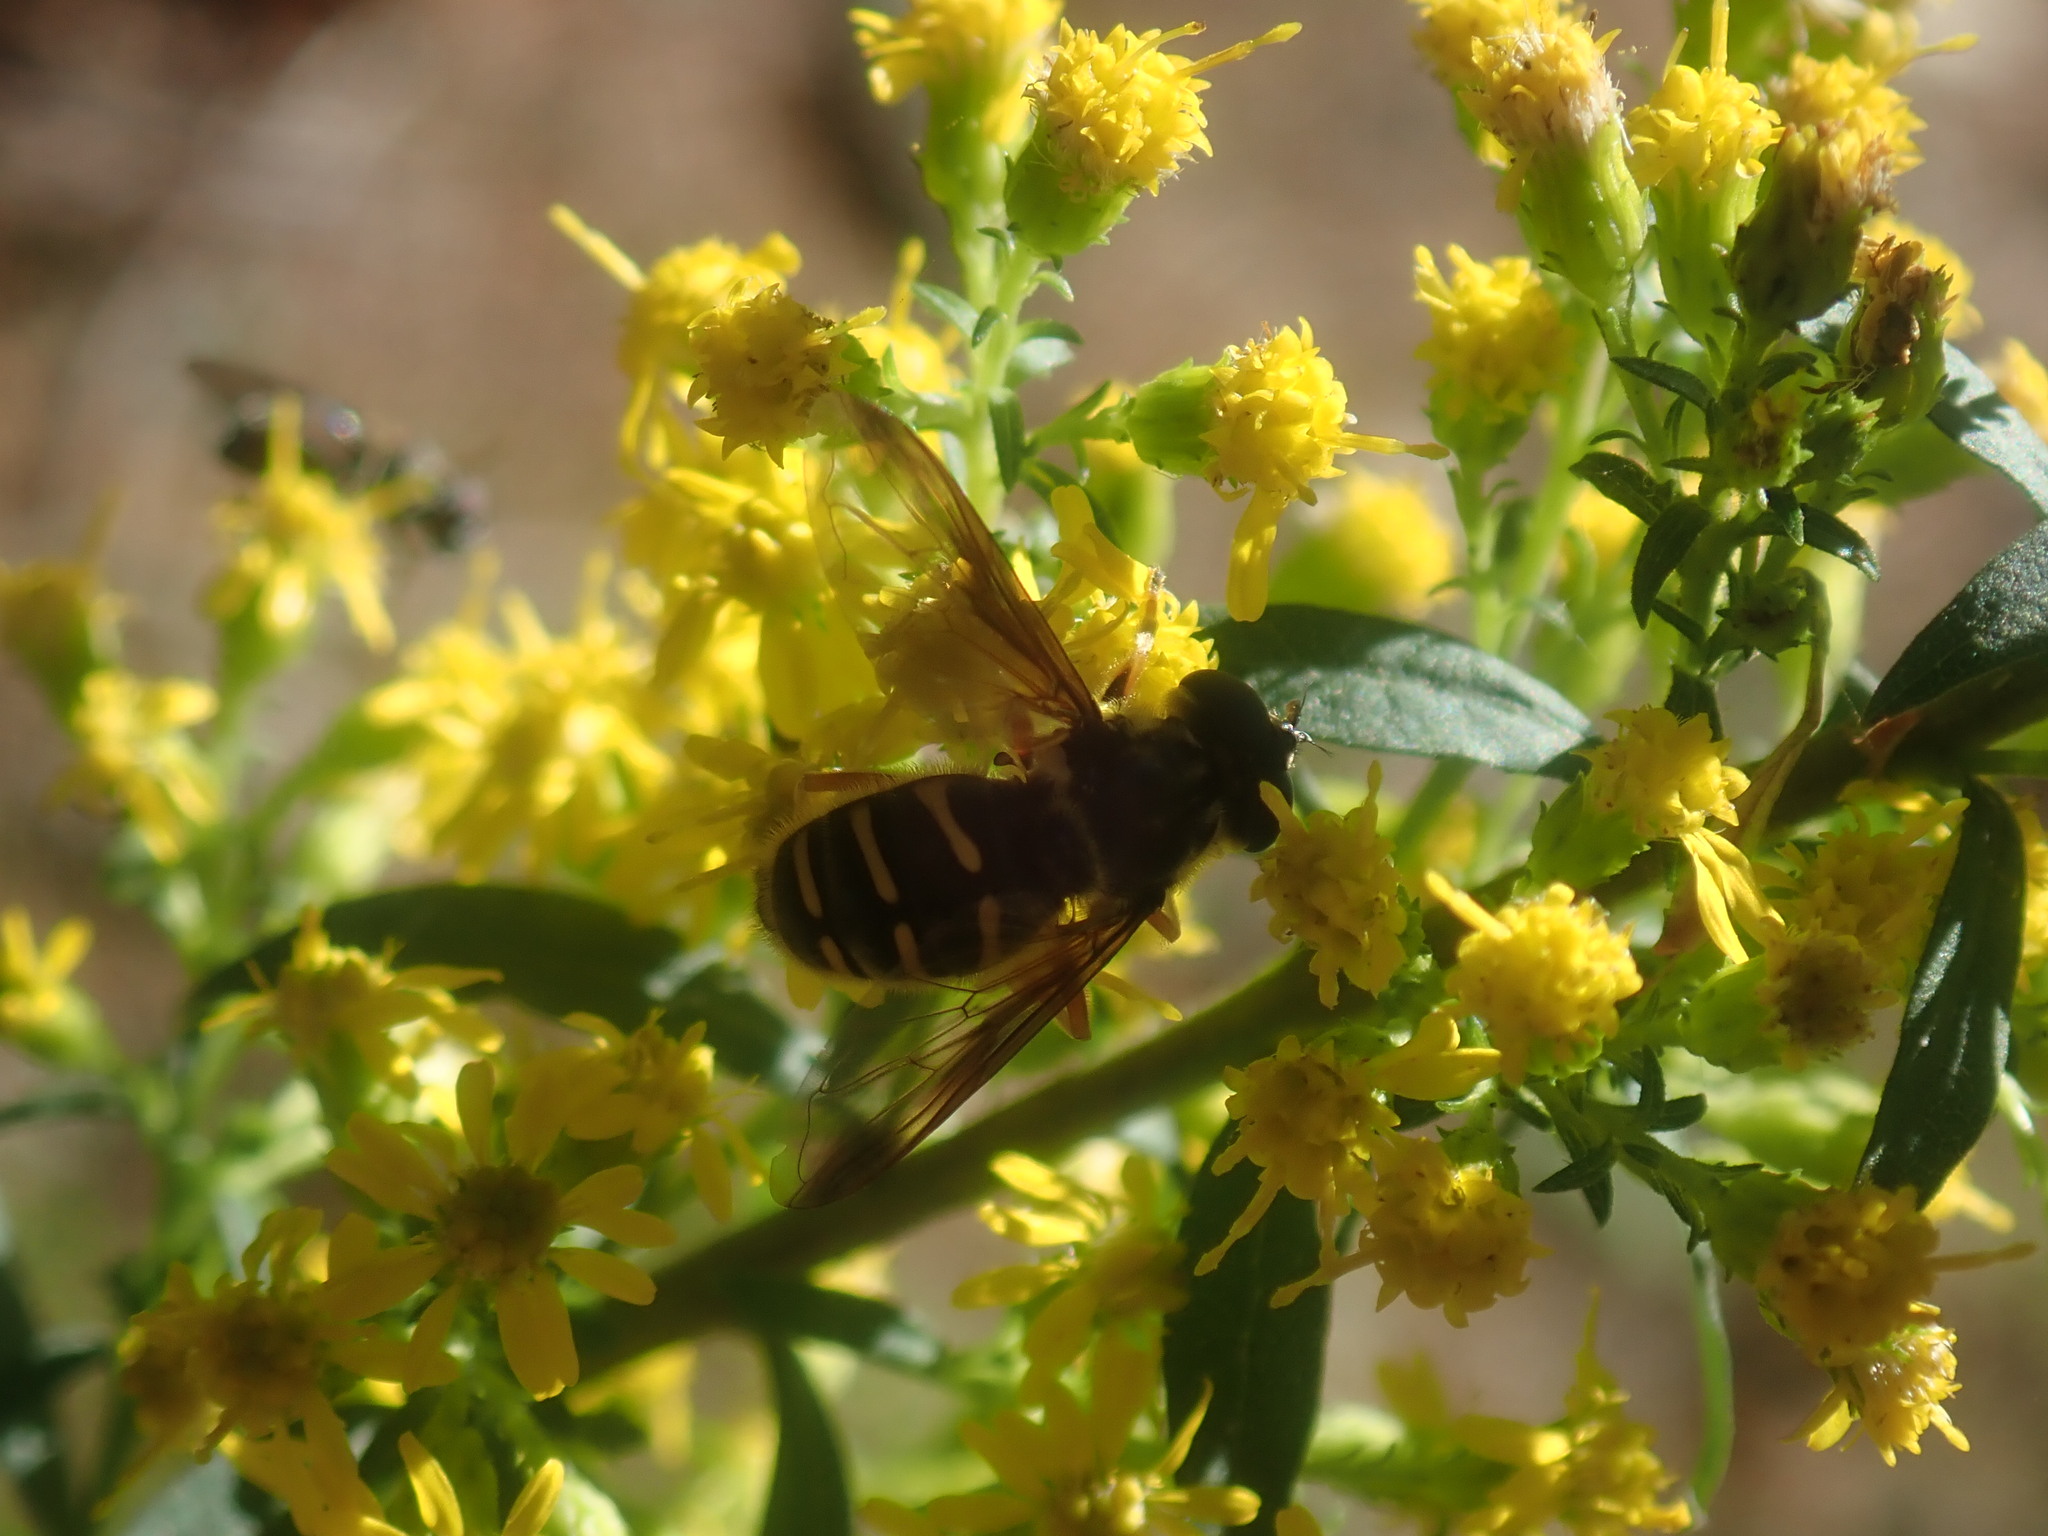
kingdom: Animalia
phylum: Arthropoda
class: Insecta
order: Diptera
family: Syrphidae
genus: Sericomyia
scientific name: Sericomyia chrysotoxoides
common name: Oblique-banded pond fly
